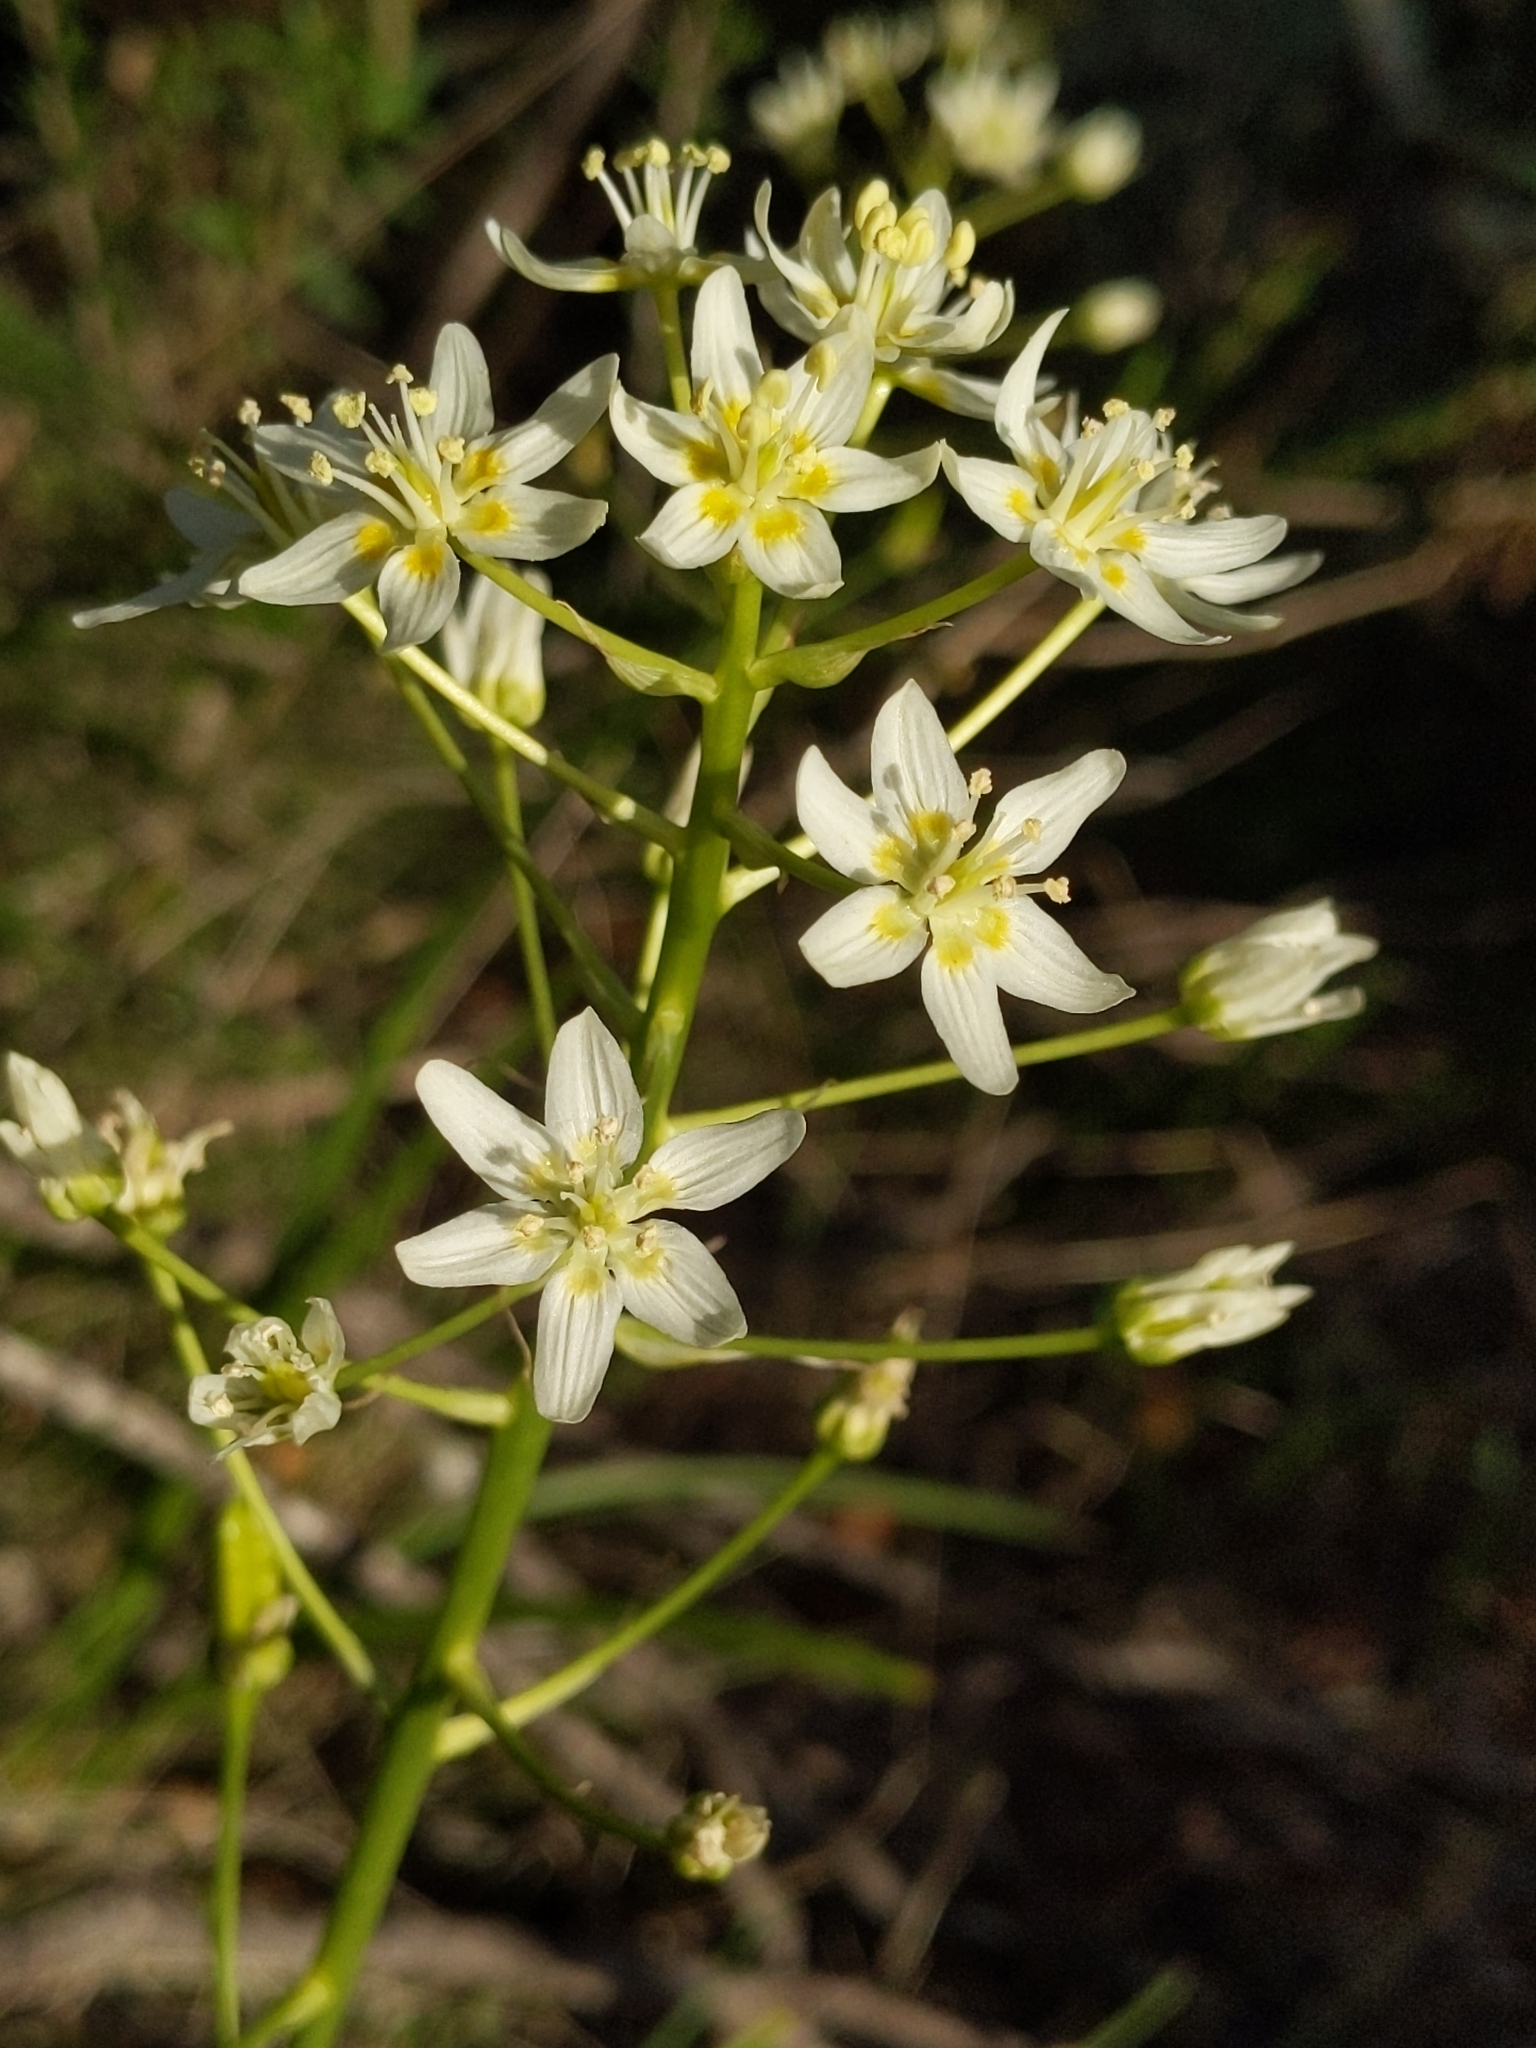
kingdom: Plantae
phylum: Tracheophyta
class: Liliopsida
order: Liliales
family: Melanthiaceae
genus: Toxicoscordion
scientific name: Toxicoscordion fremontii
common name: Fremont's death camas
